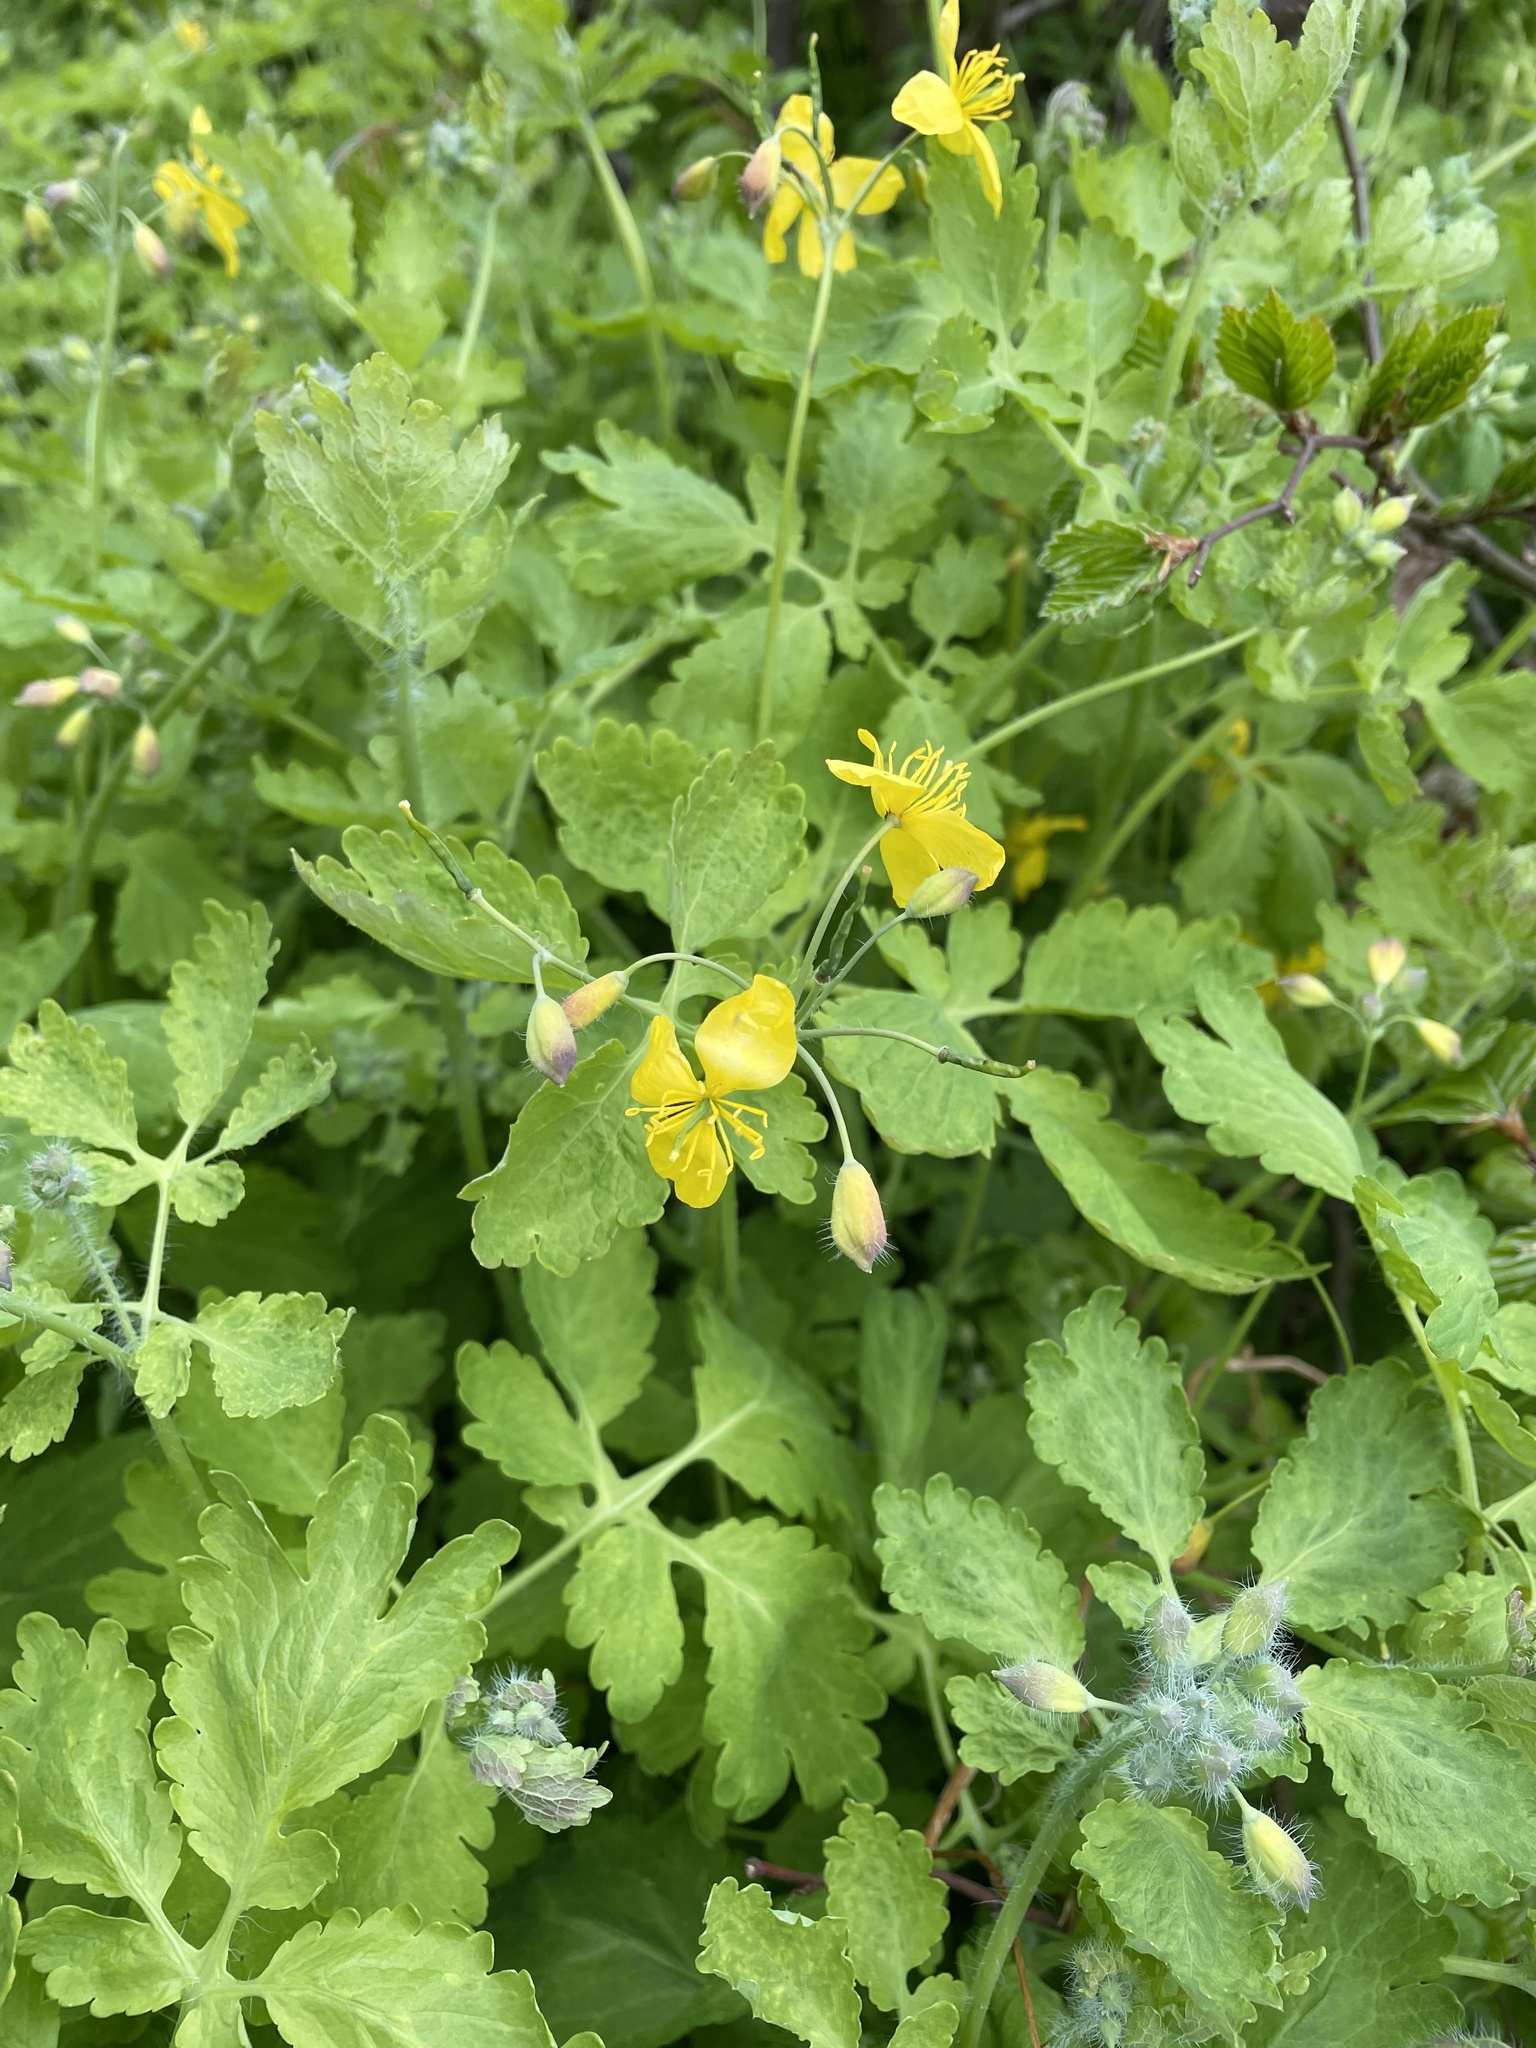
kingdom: Plantae
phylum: Tracheophyta
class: Magnoliopsida
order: Ranunculales
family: Papaveraceae
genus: Chelidonium
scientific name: Chelidonium majus
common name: Greater celandine
